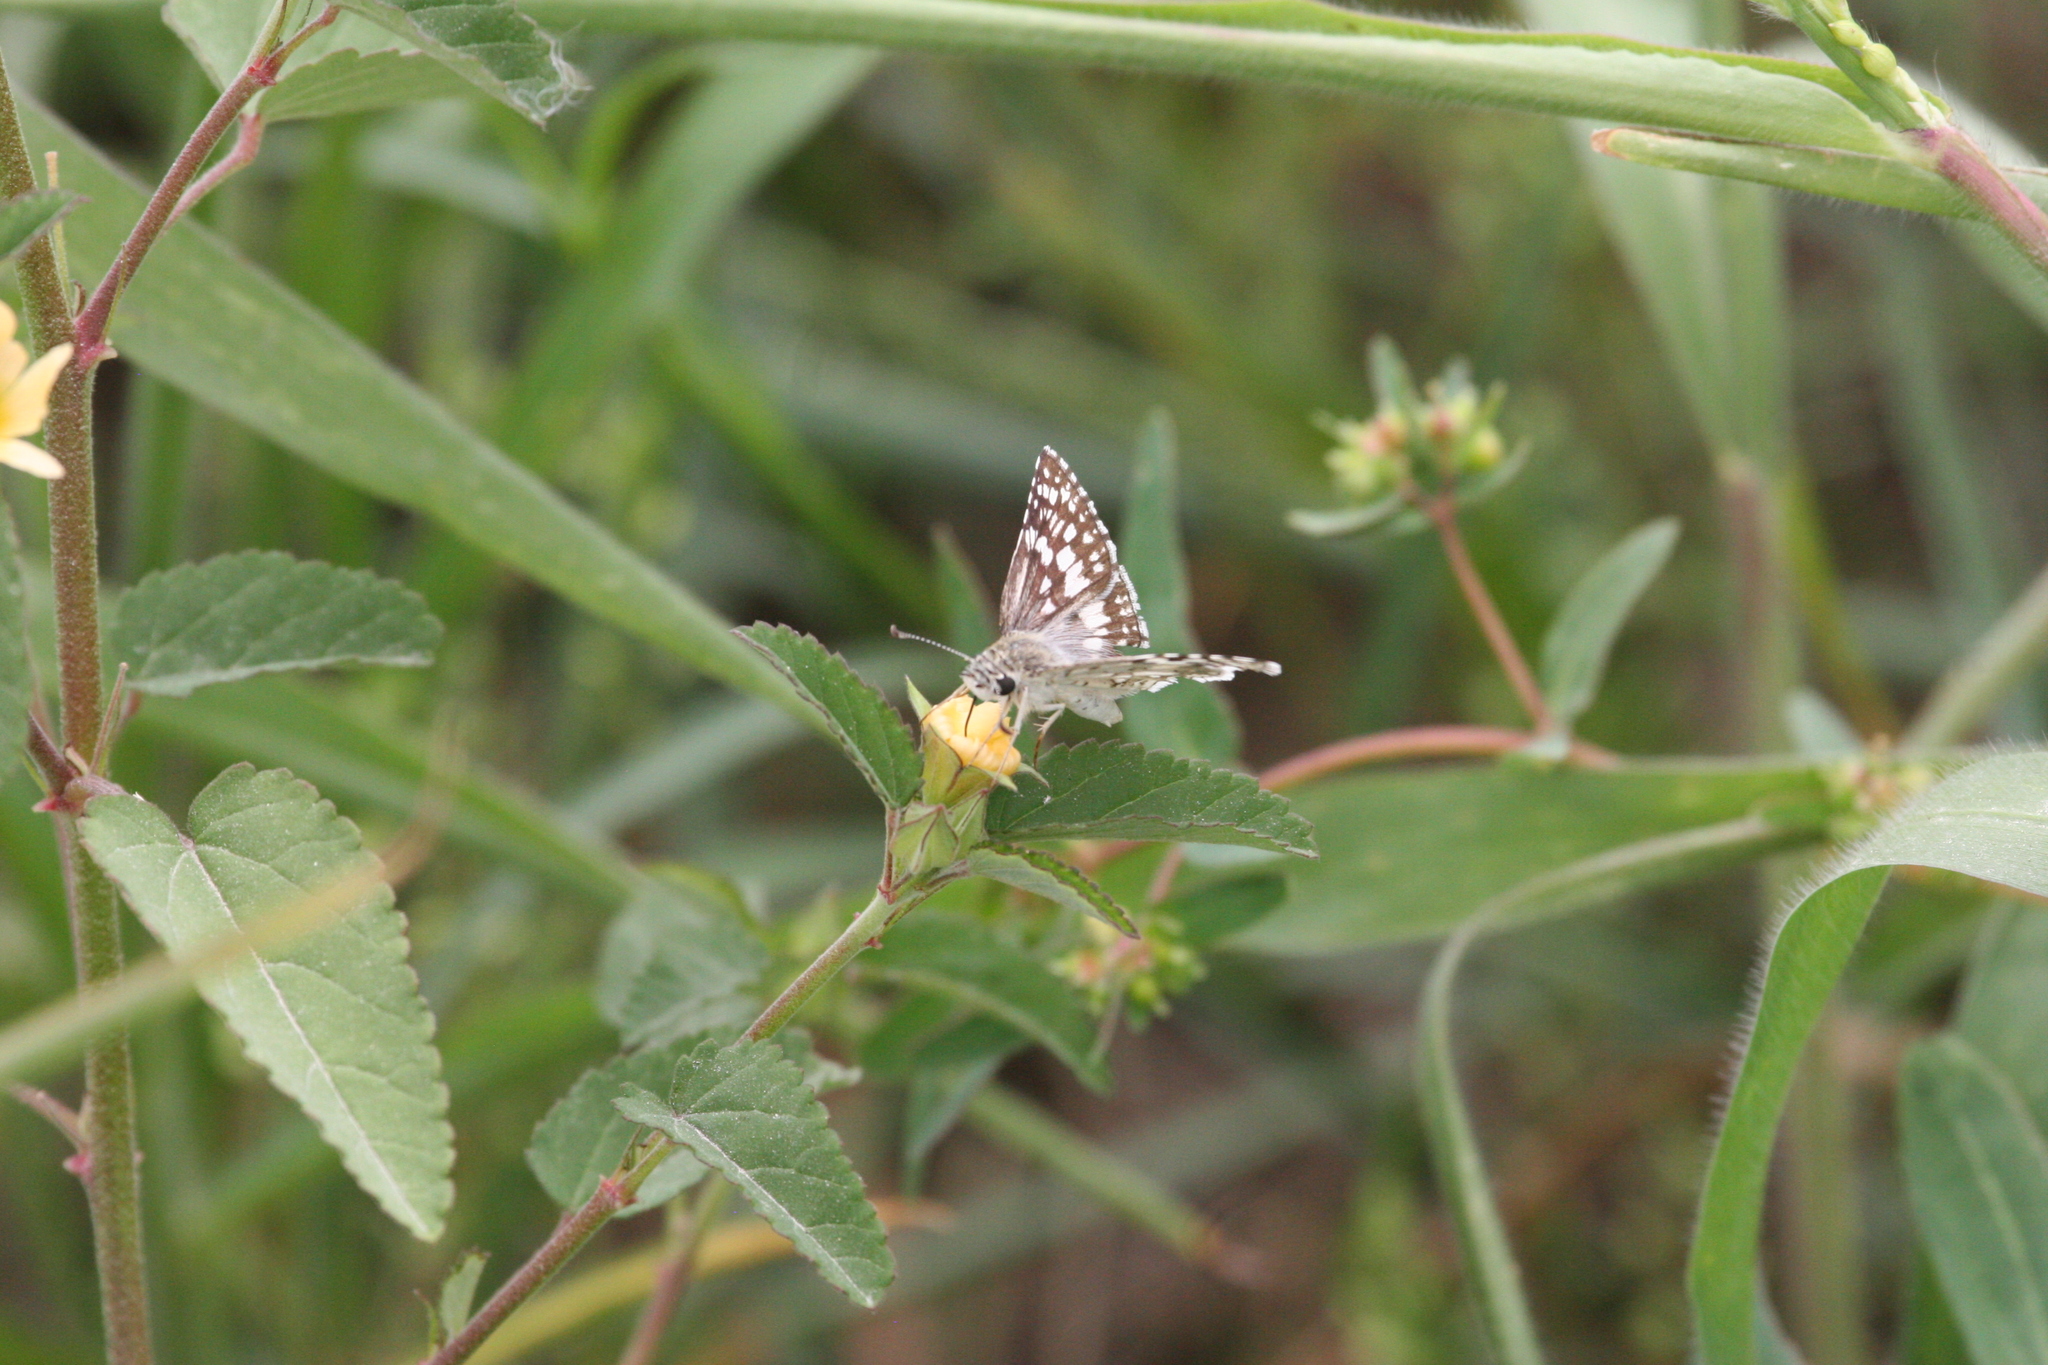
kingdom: Animalia
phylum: Arthropoda
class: Insecta
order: Lepidoptera
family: Hesperiidae
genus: Burnsius
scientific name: Burnsius communis
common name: Common checkered-skipper
